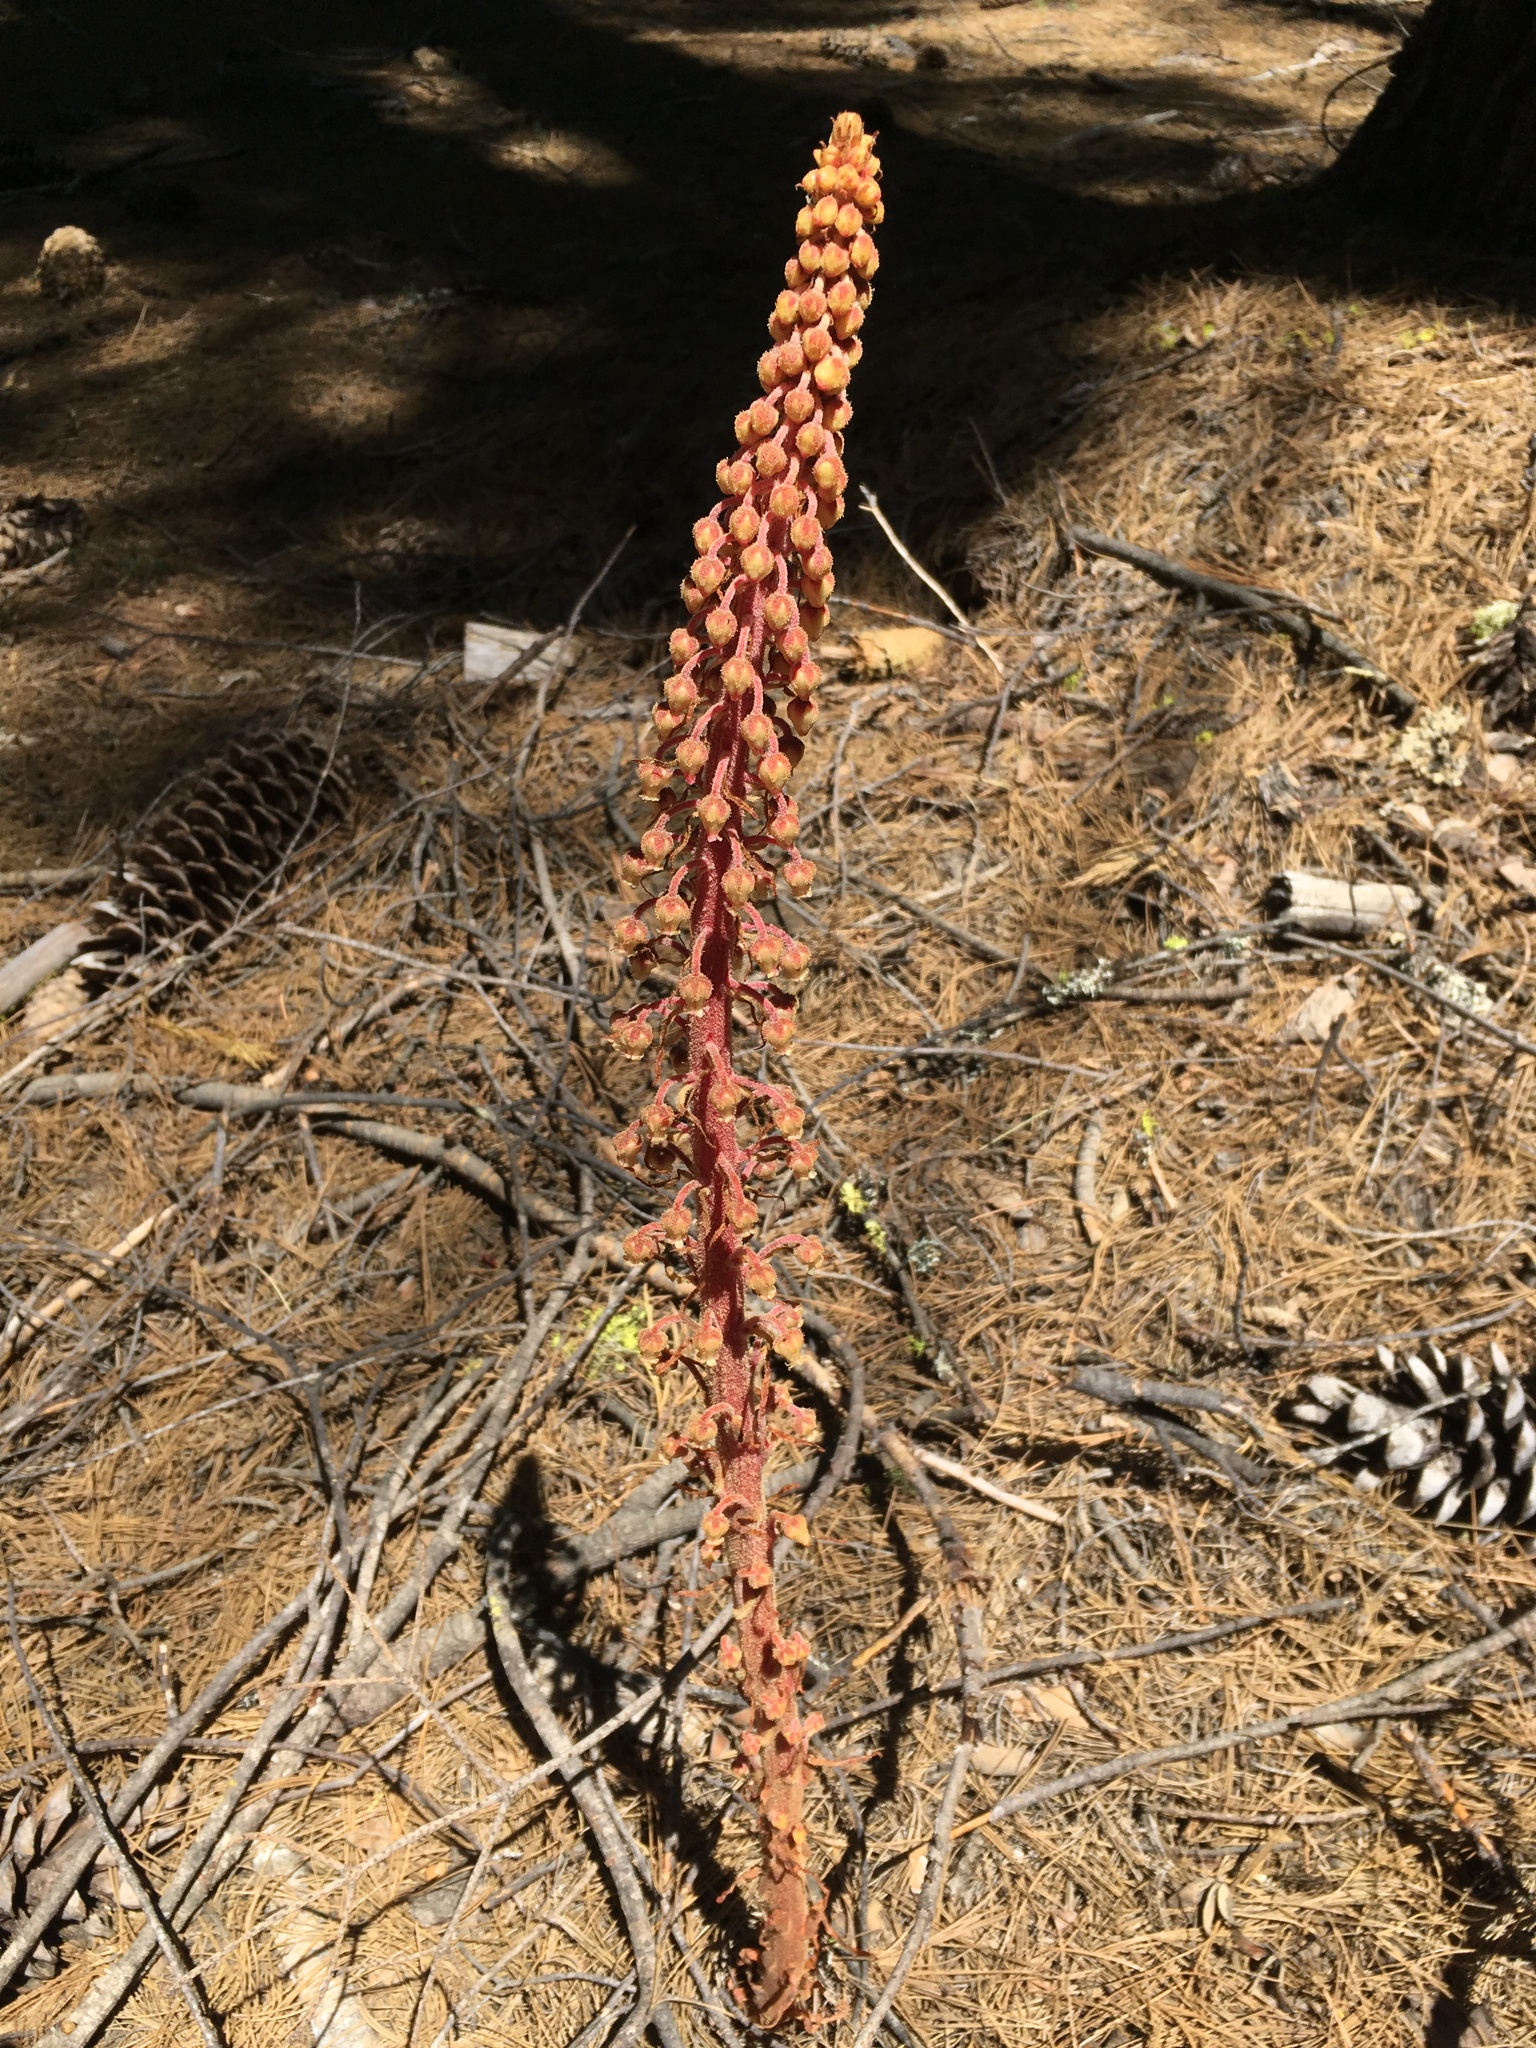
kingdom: Plantae
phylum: Tracheophyta
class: Magnoliopsida
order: Ericales
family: Ericaceae
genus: Pterospora
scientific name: Pterospora andromedea
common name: Giant bird's-nest
